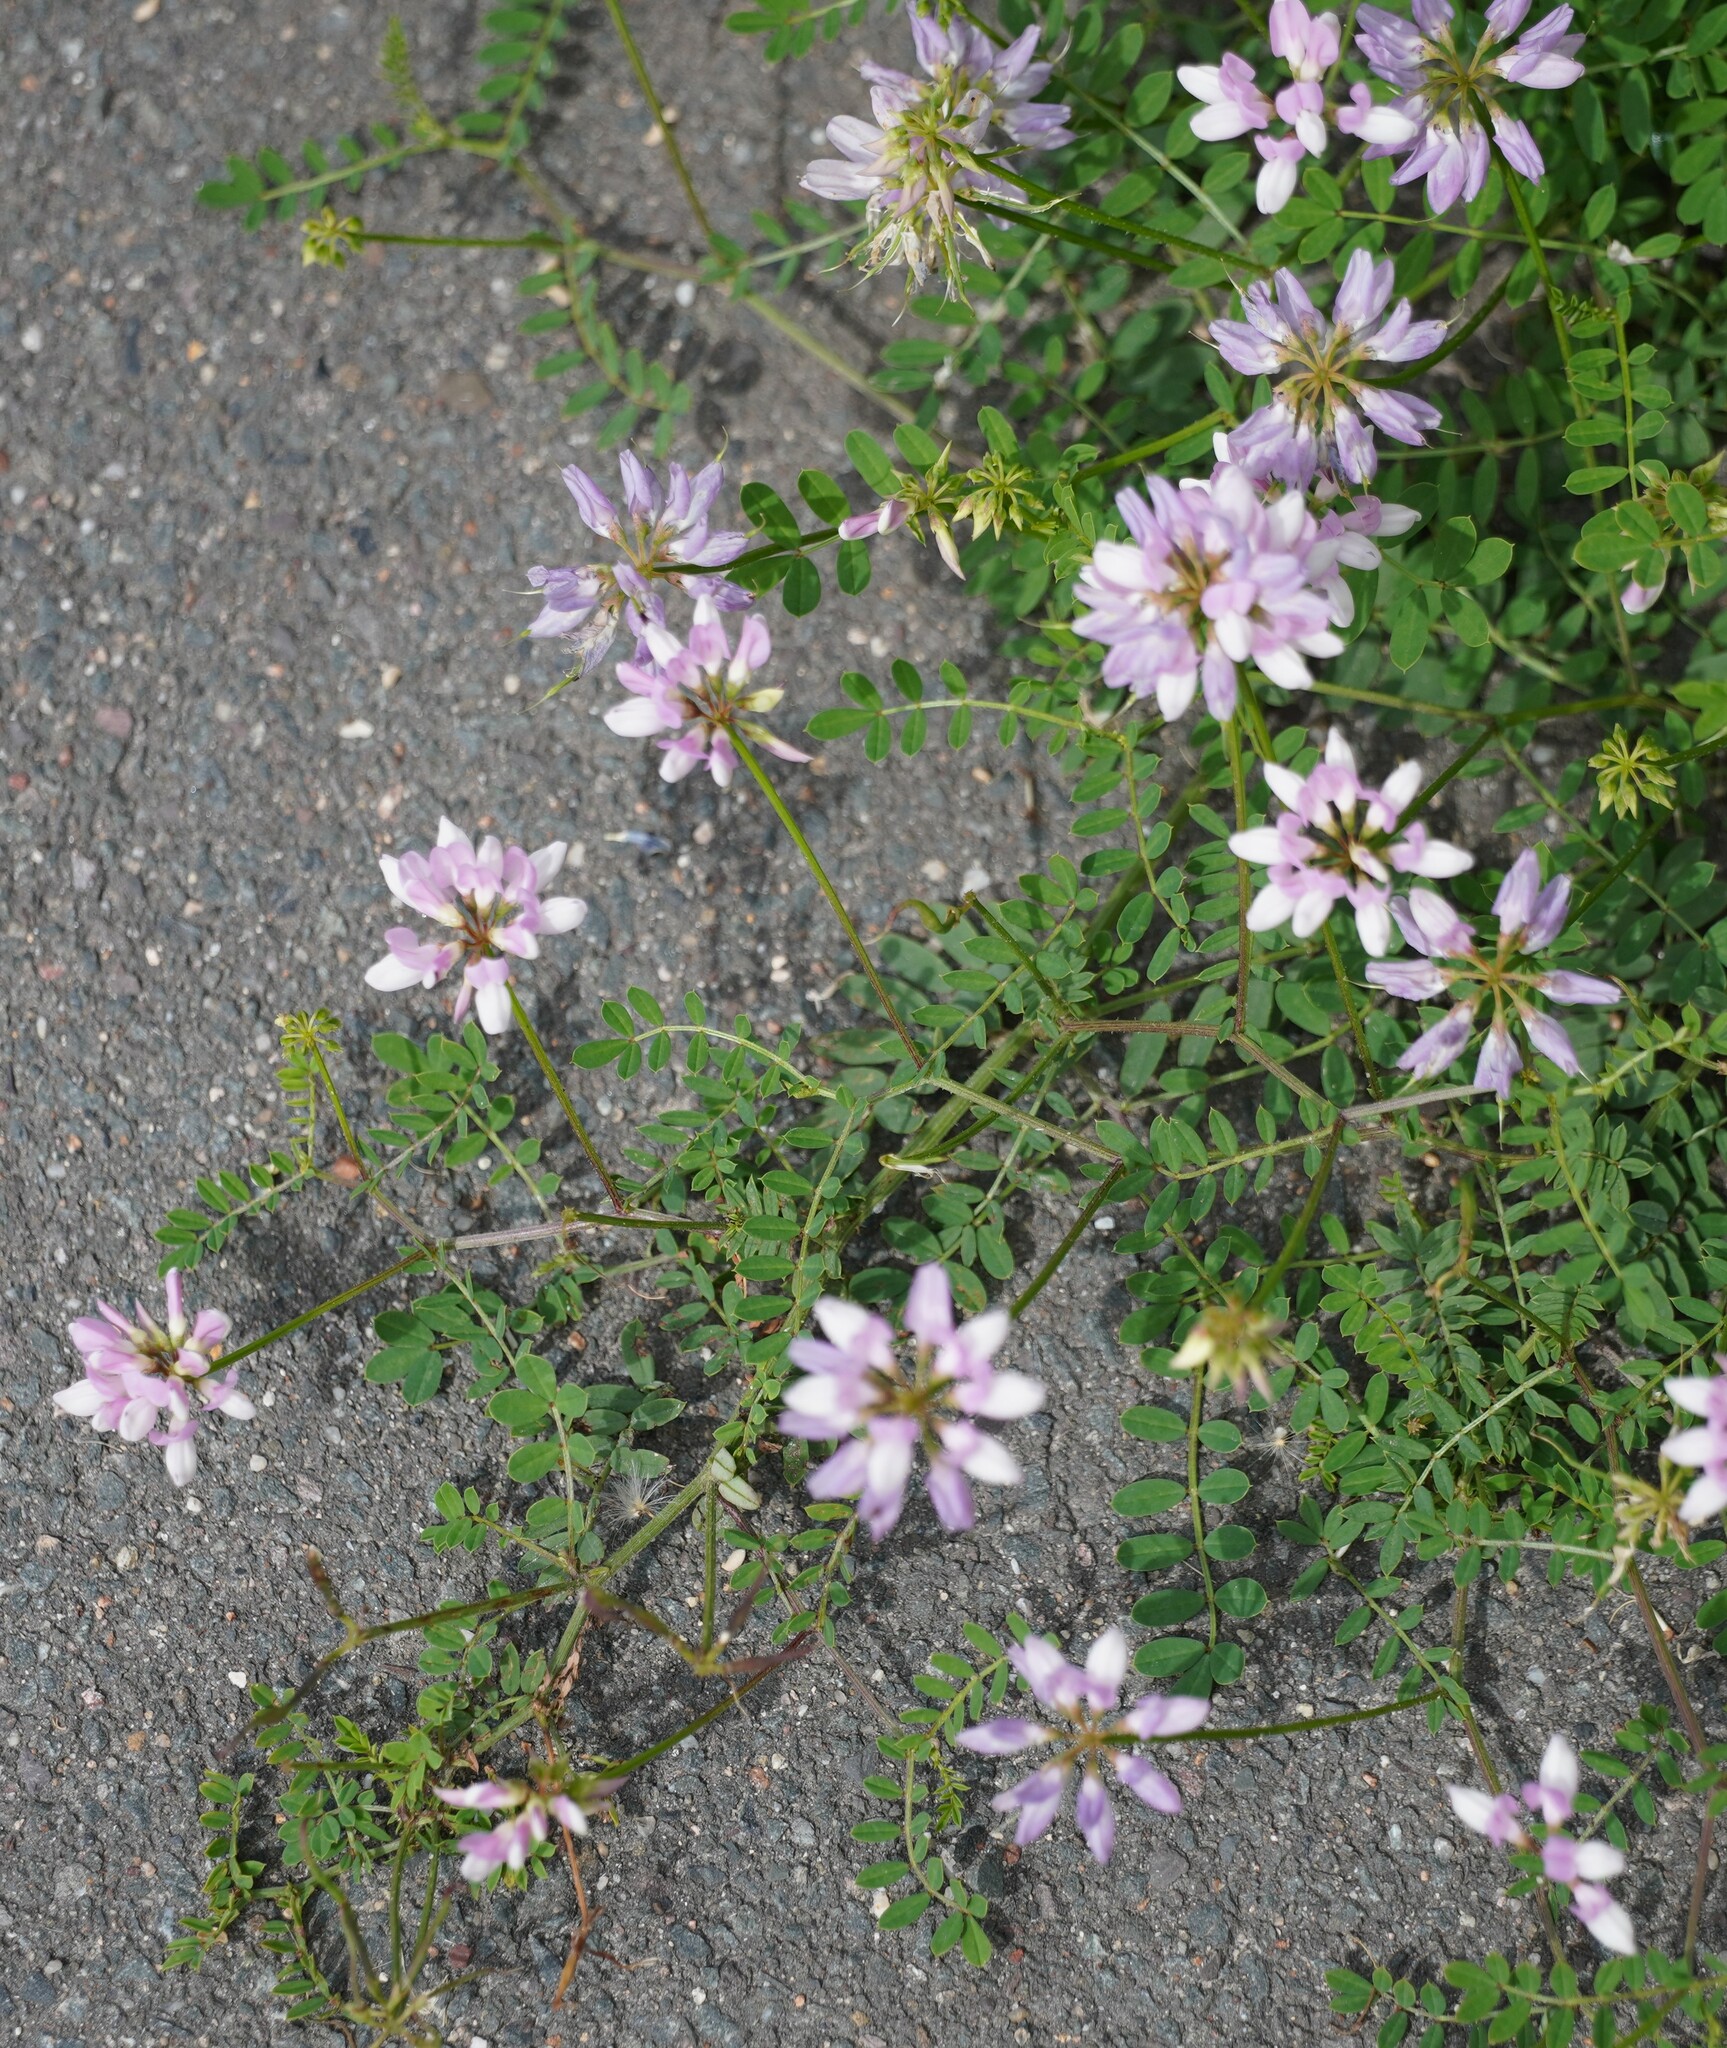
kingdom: Plantae
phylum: Tracheophyta
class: Magnoliopsida
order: Fabales
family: Fabaceae
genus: Coronilla
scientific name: Coronilla varia
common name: Crownvetch
